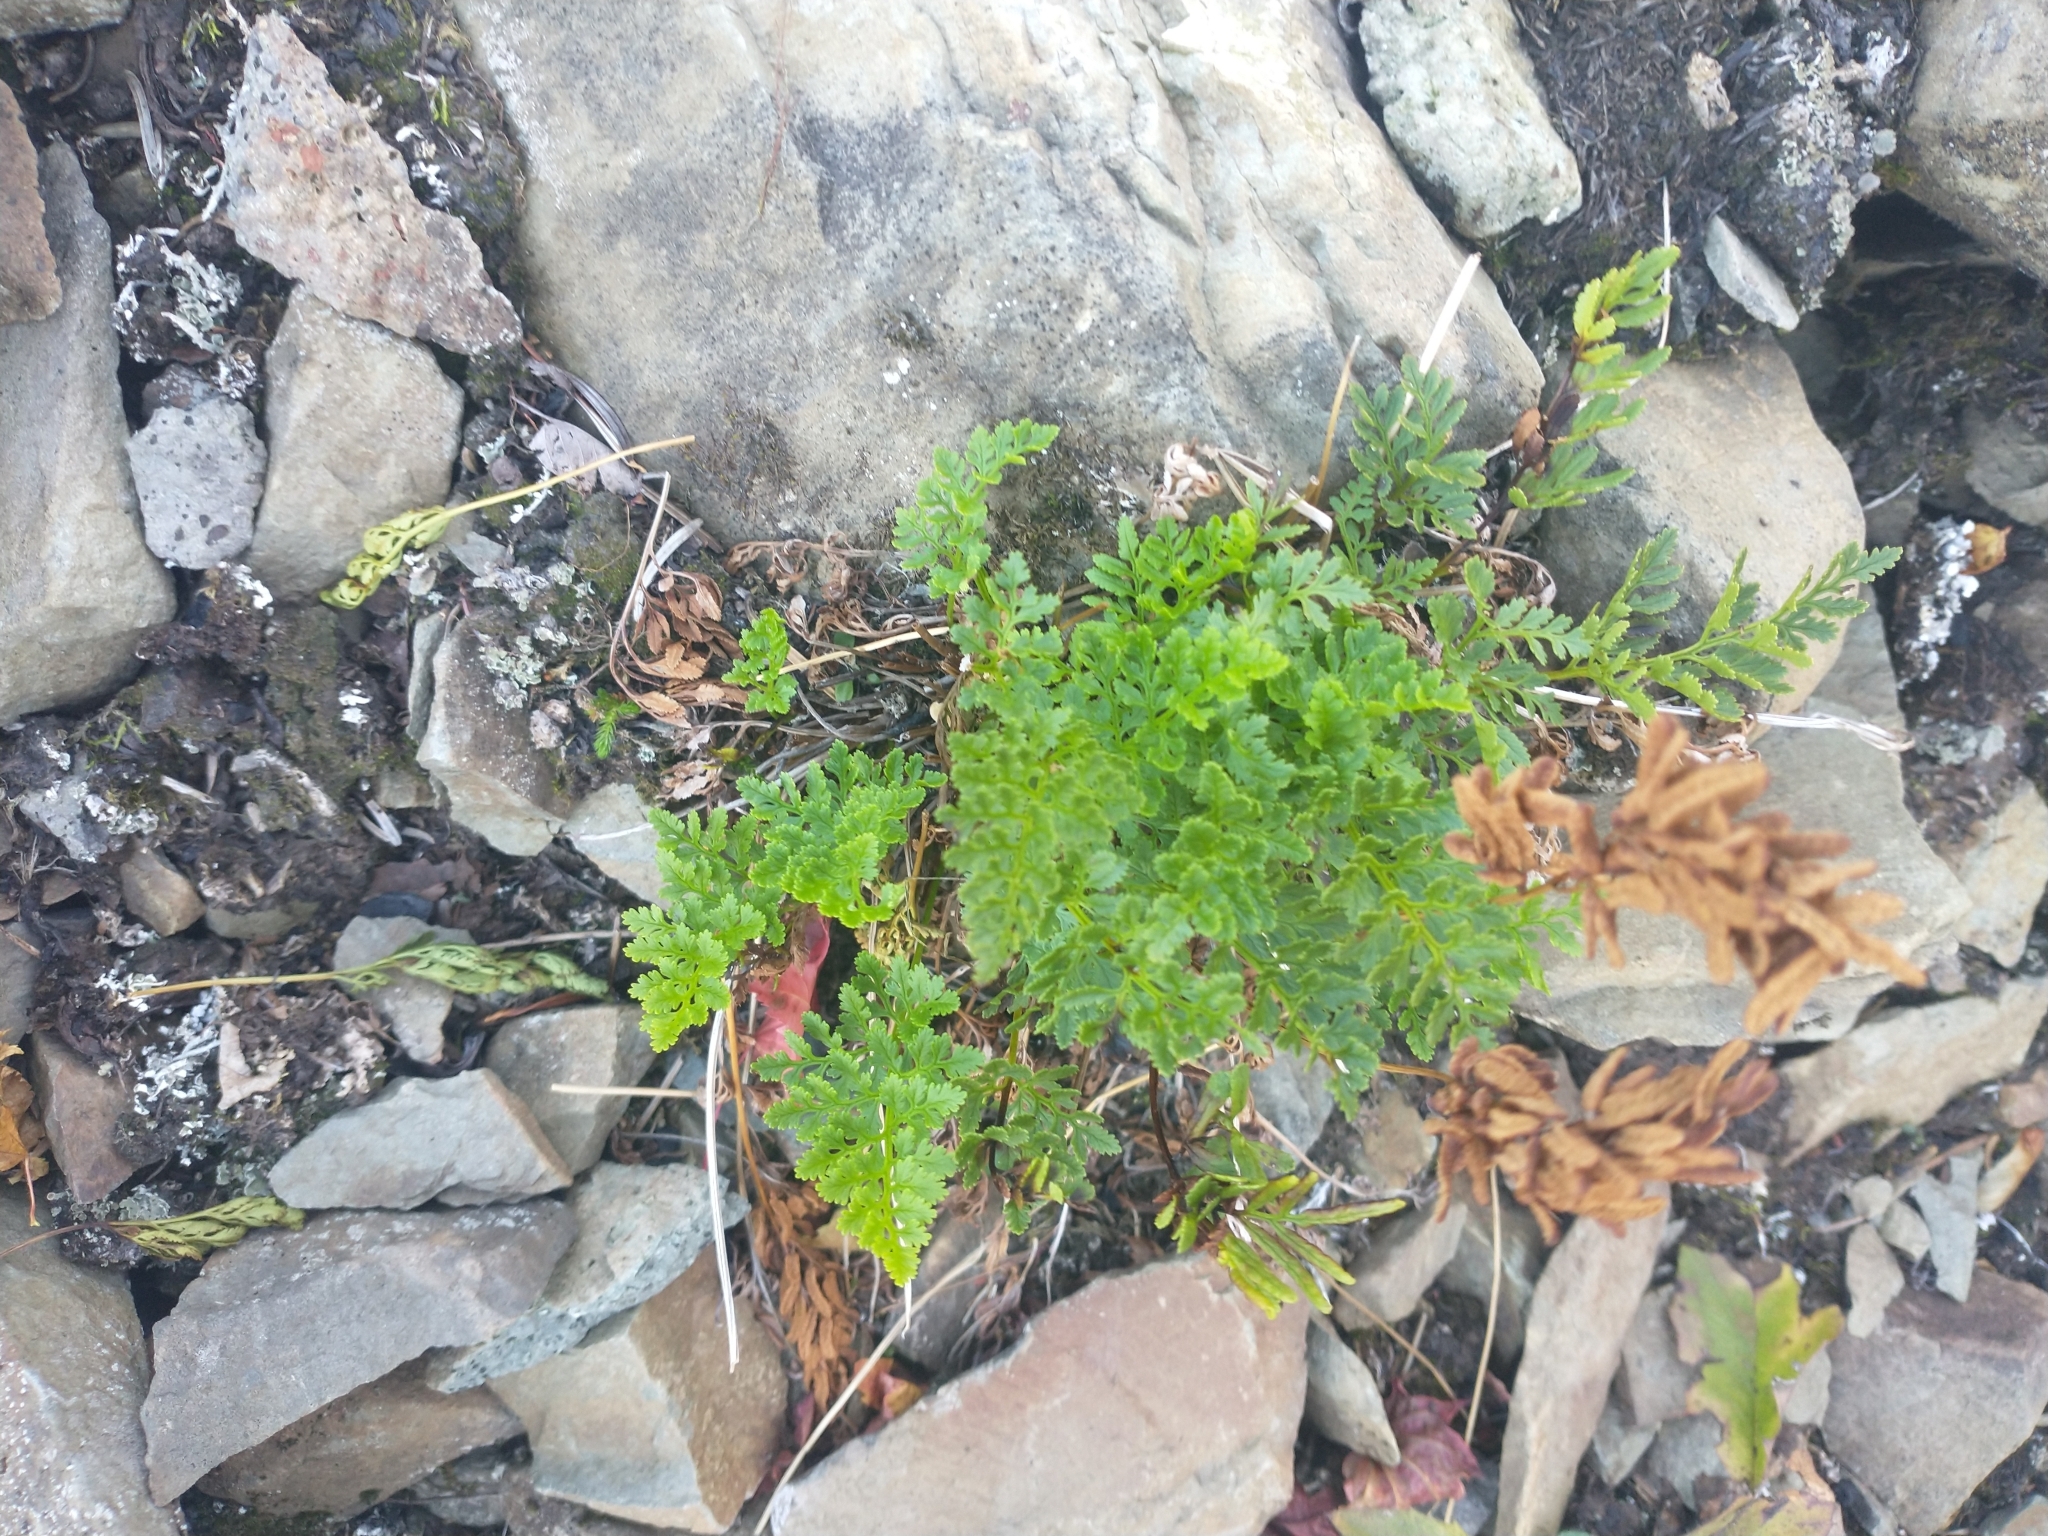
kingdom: Plantae
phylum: Tracheophyta
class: Polypodiopsida
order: Polypodiales
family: Pteridaceae
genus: Cryptogramma
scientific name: Cryptogramma acrostichoides
